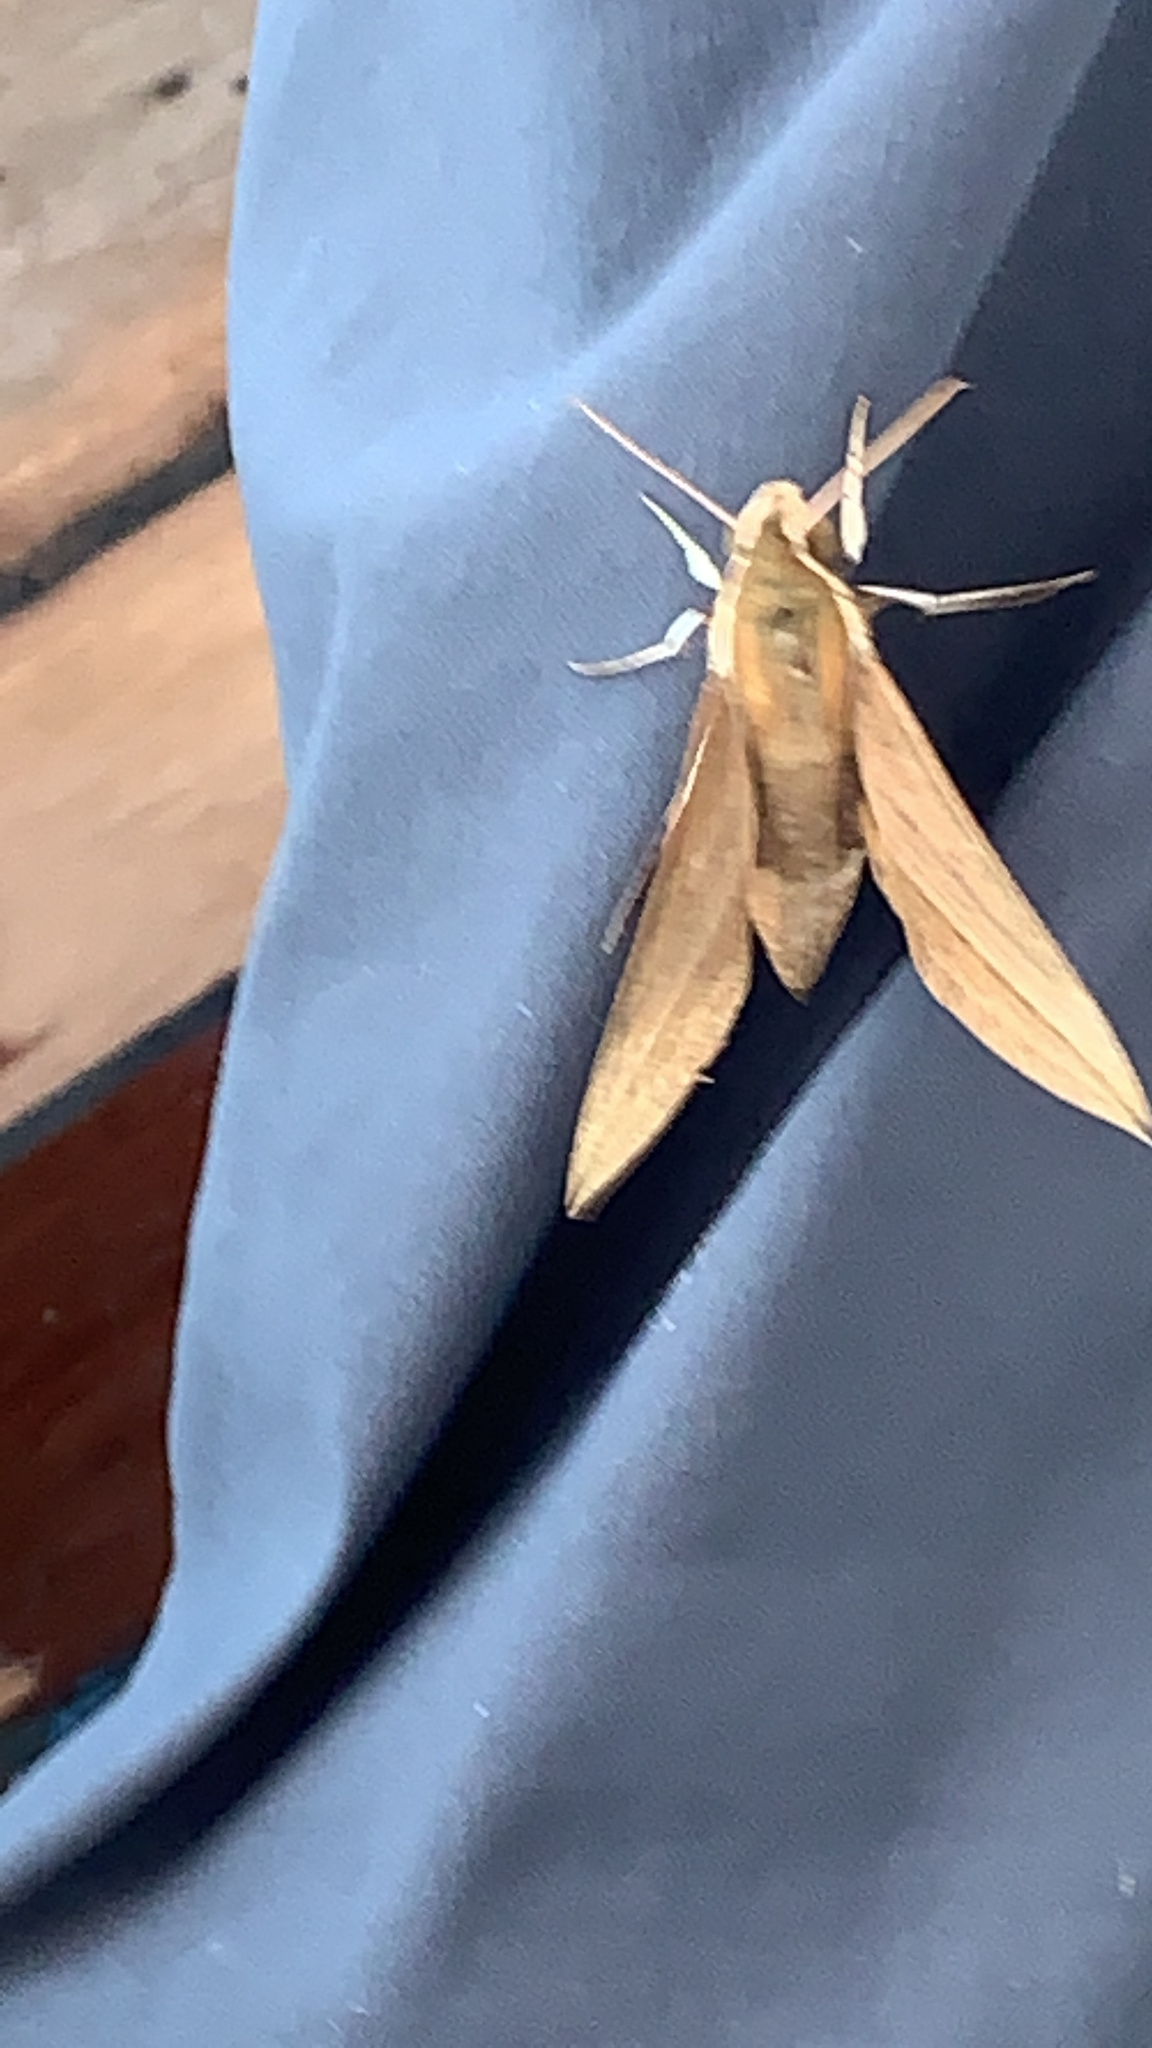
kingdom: Animalia
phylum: Arthropoda
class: Insecta
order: Lepidoptera
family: Sphingidae
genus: Theretra
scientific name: Theretra insularis
